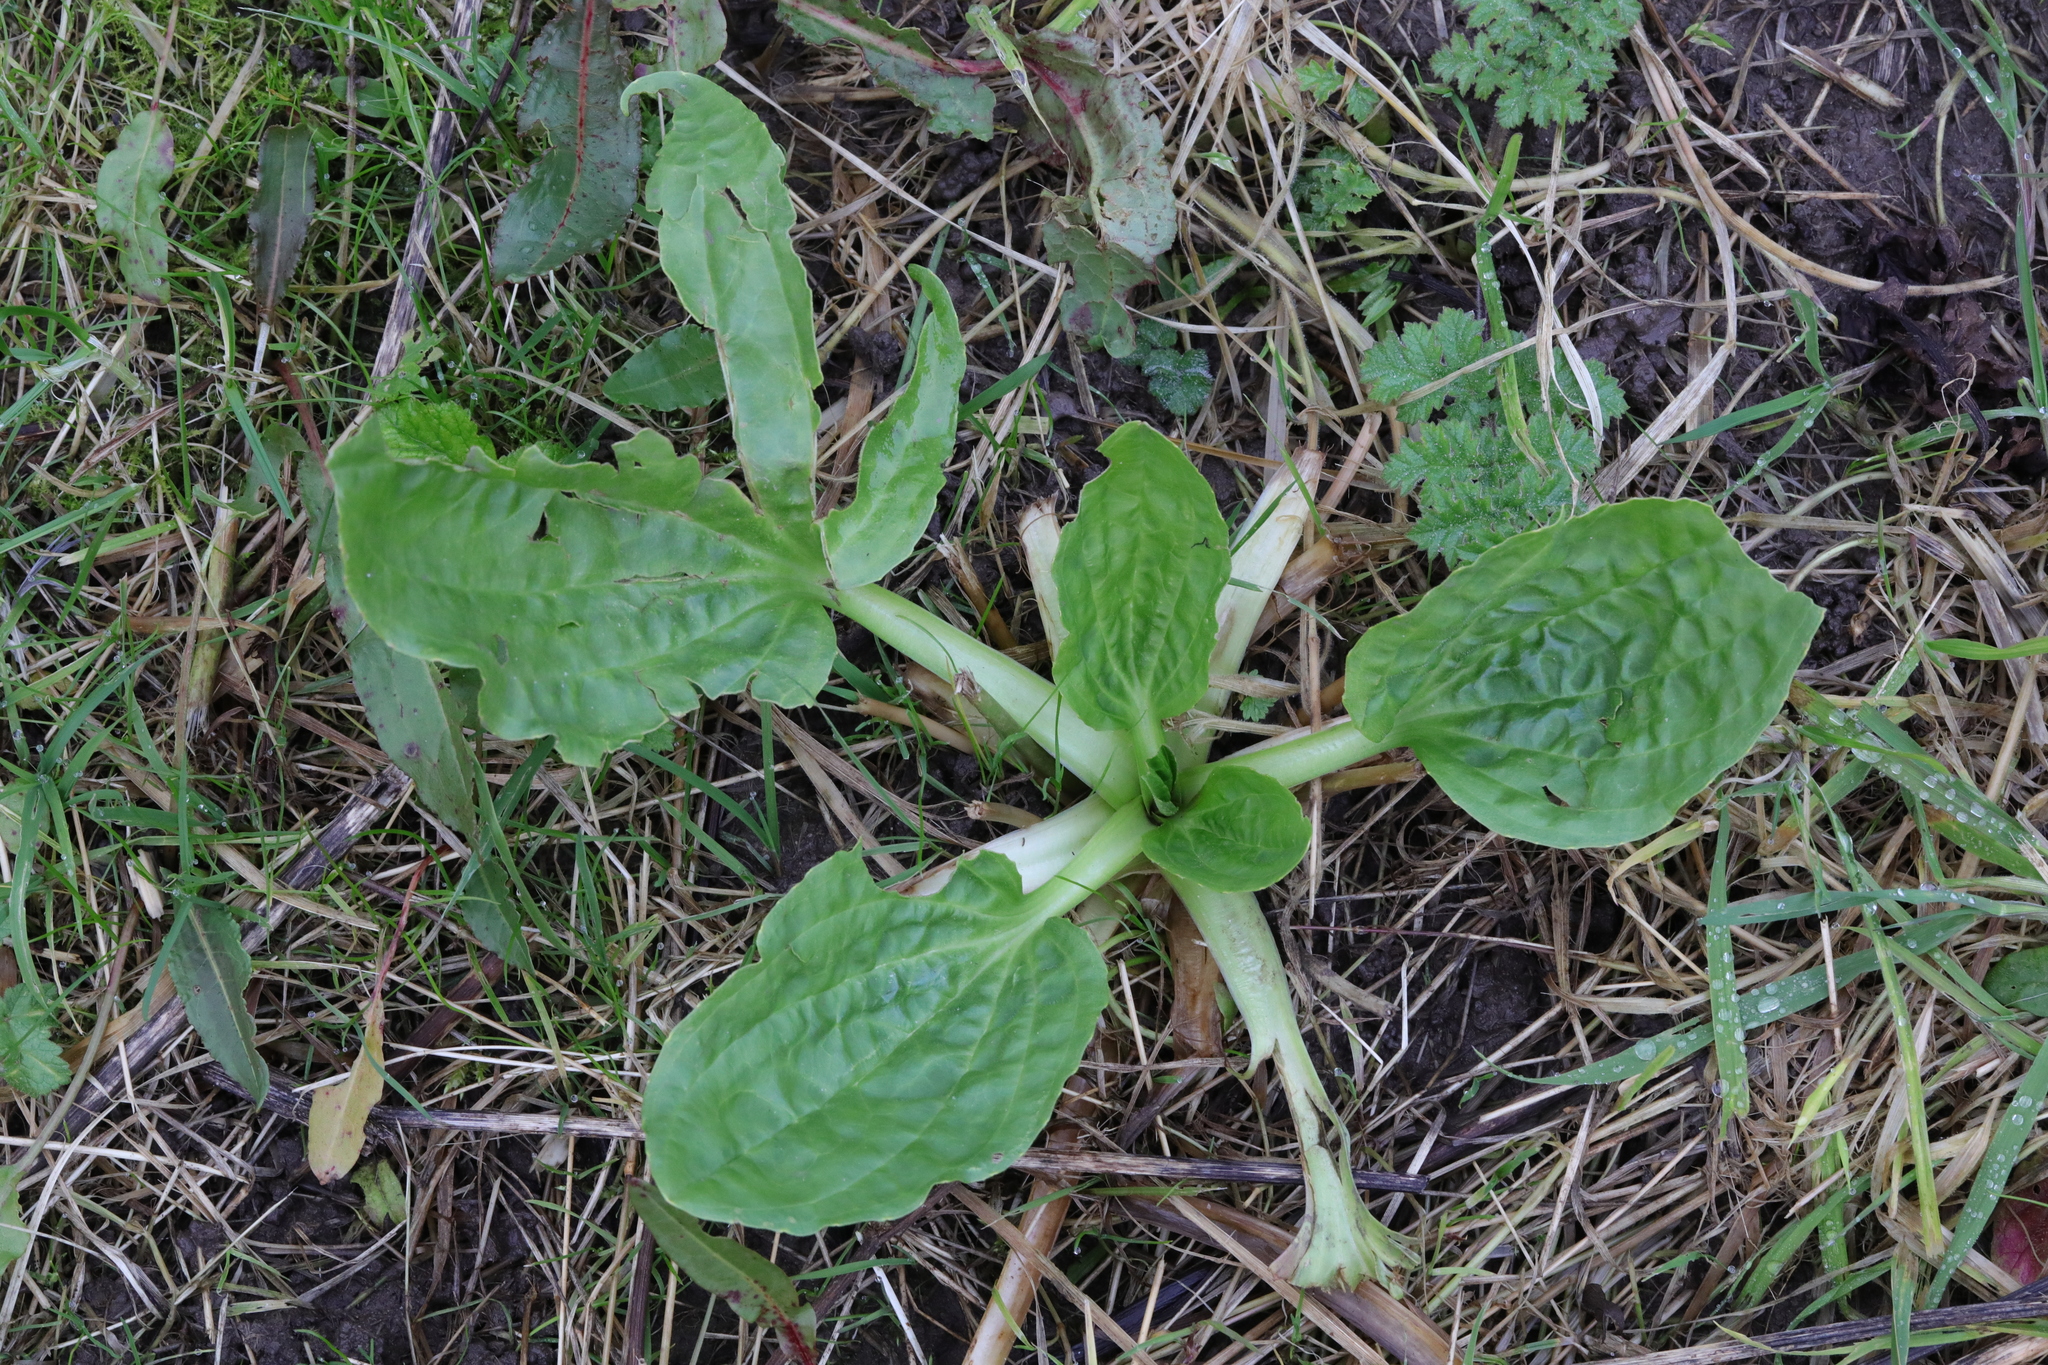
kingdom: Plantae
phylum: Tracheophyta
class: Magnoliopsida
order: Lamiales
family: Plantaginaceae
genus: Plantago
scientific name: Plantago major
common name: Common plantain
